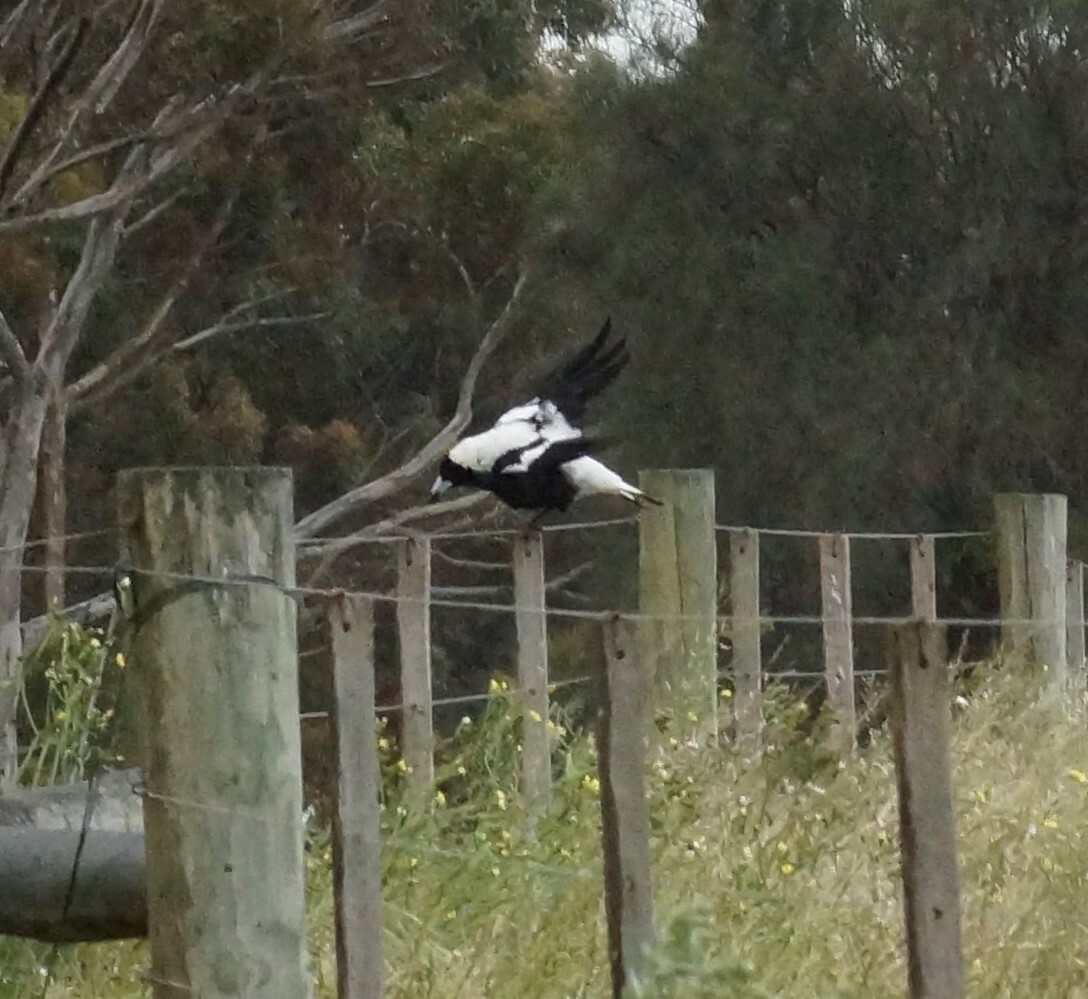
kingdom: Animalia
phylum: Chordata
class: Aves
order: Passeriformes
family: Cracticidae
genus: Gymnorhina
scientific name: Gymnorhina tibicen
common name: Australian magpie
